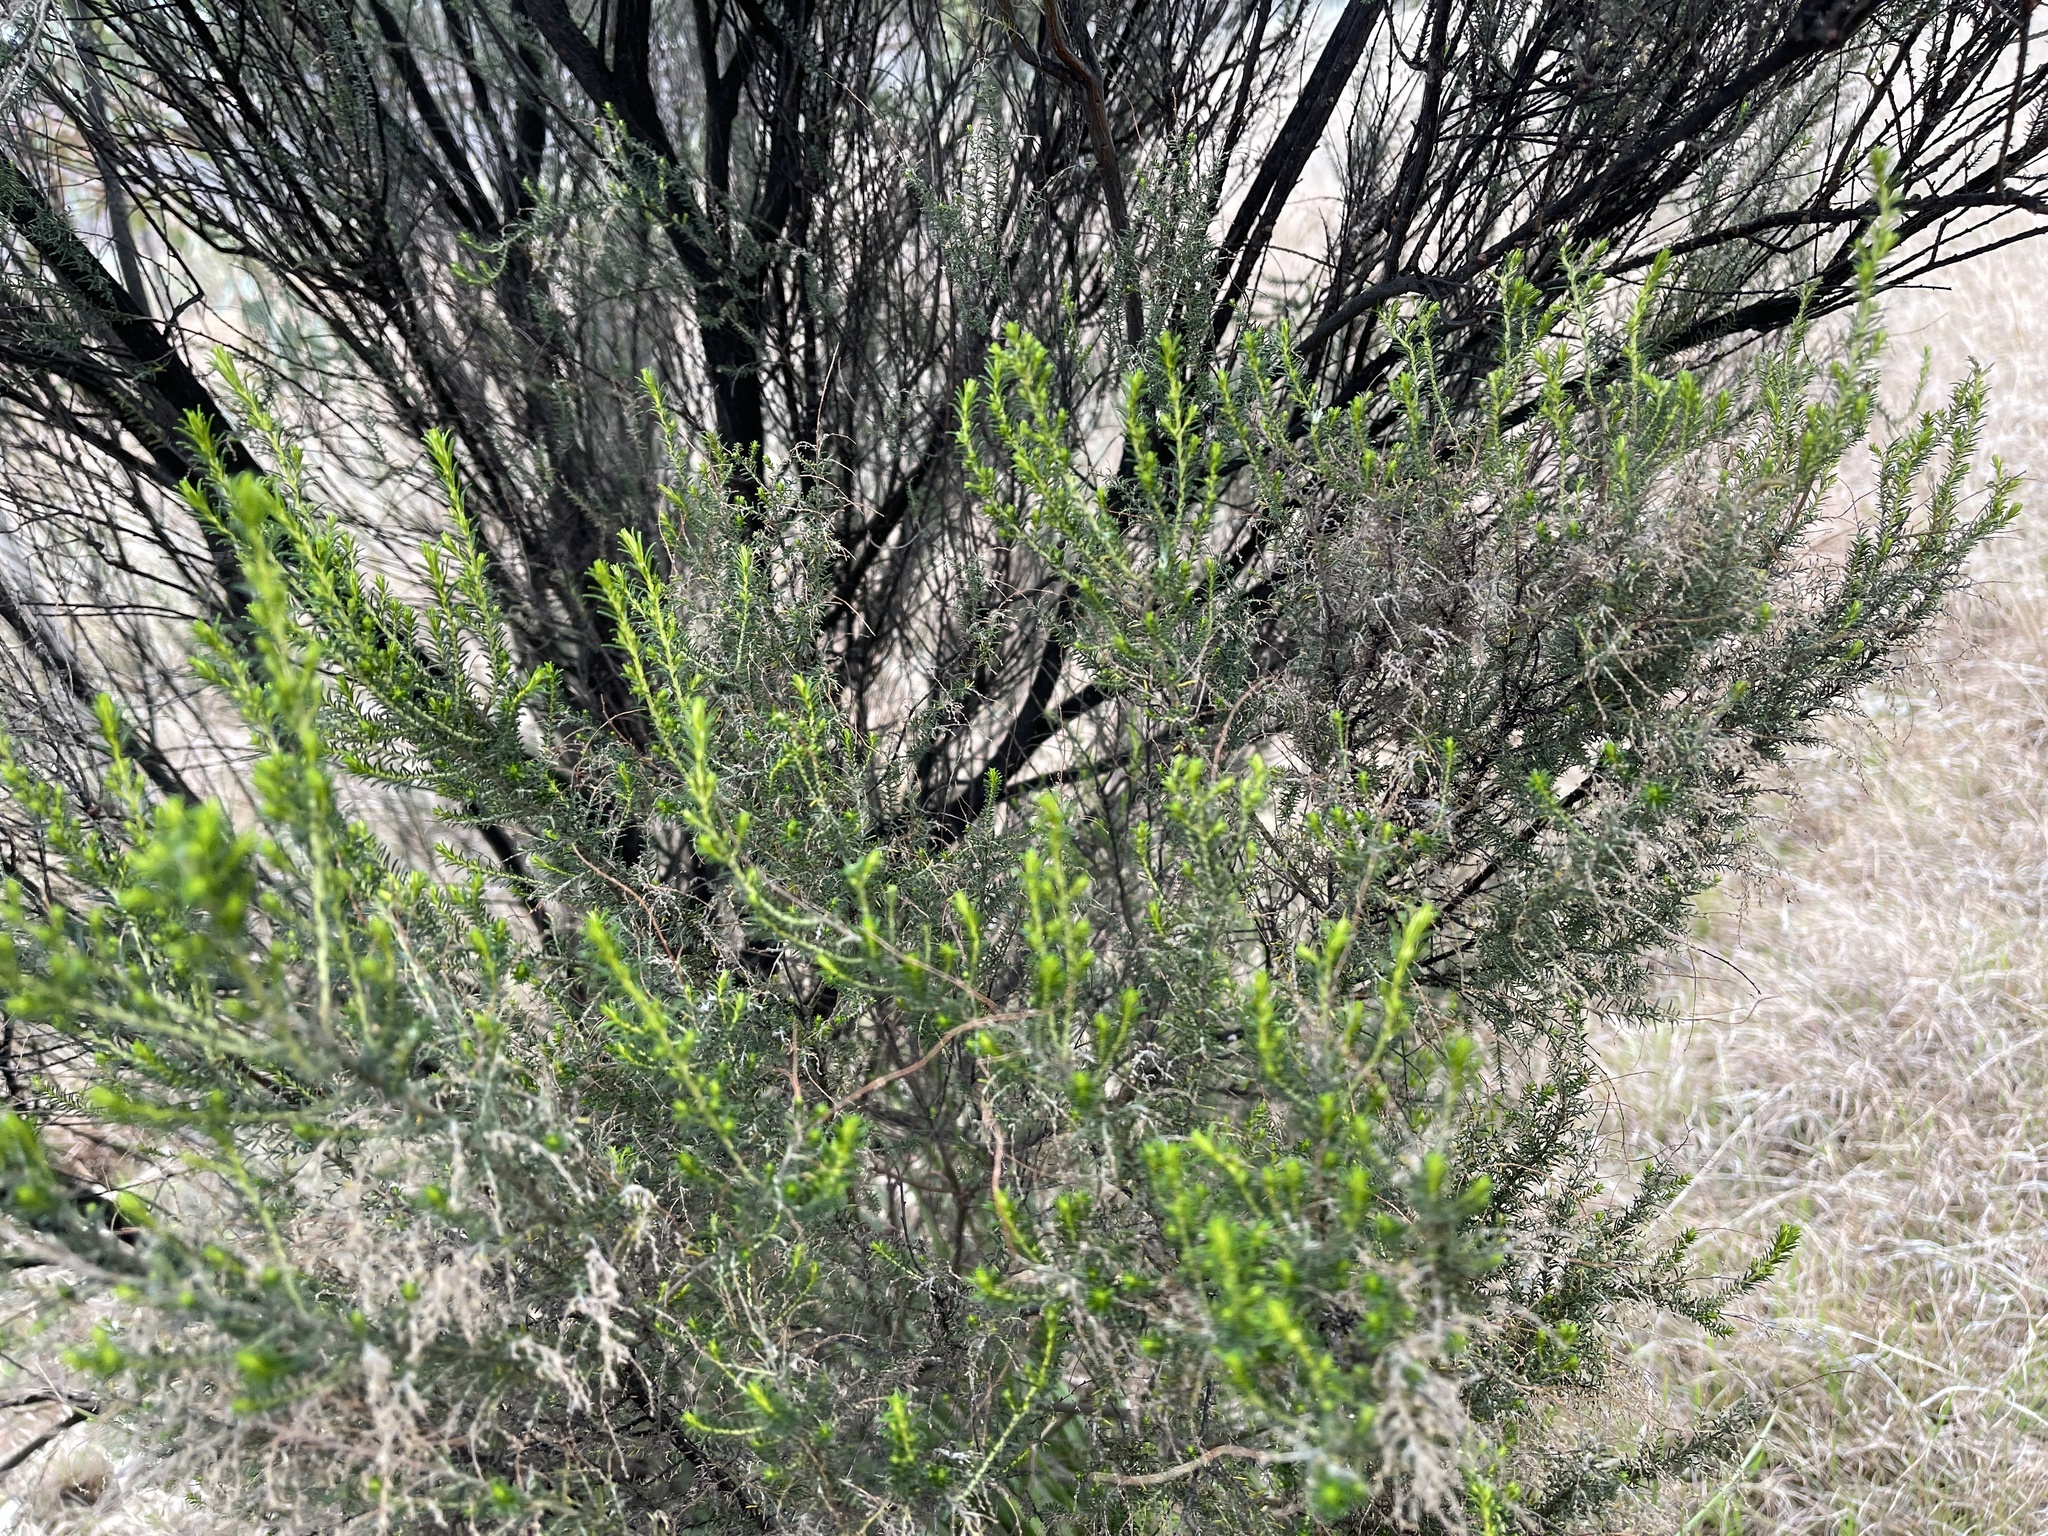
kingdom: Plantae
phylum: Tracheophyta
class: Magnoliopsida
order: Asterales
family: Asteraceae
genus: Cassinia
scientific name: Cassinia sifton
